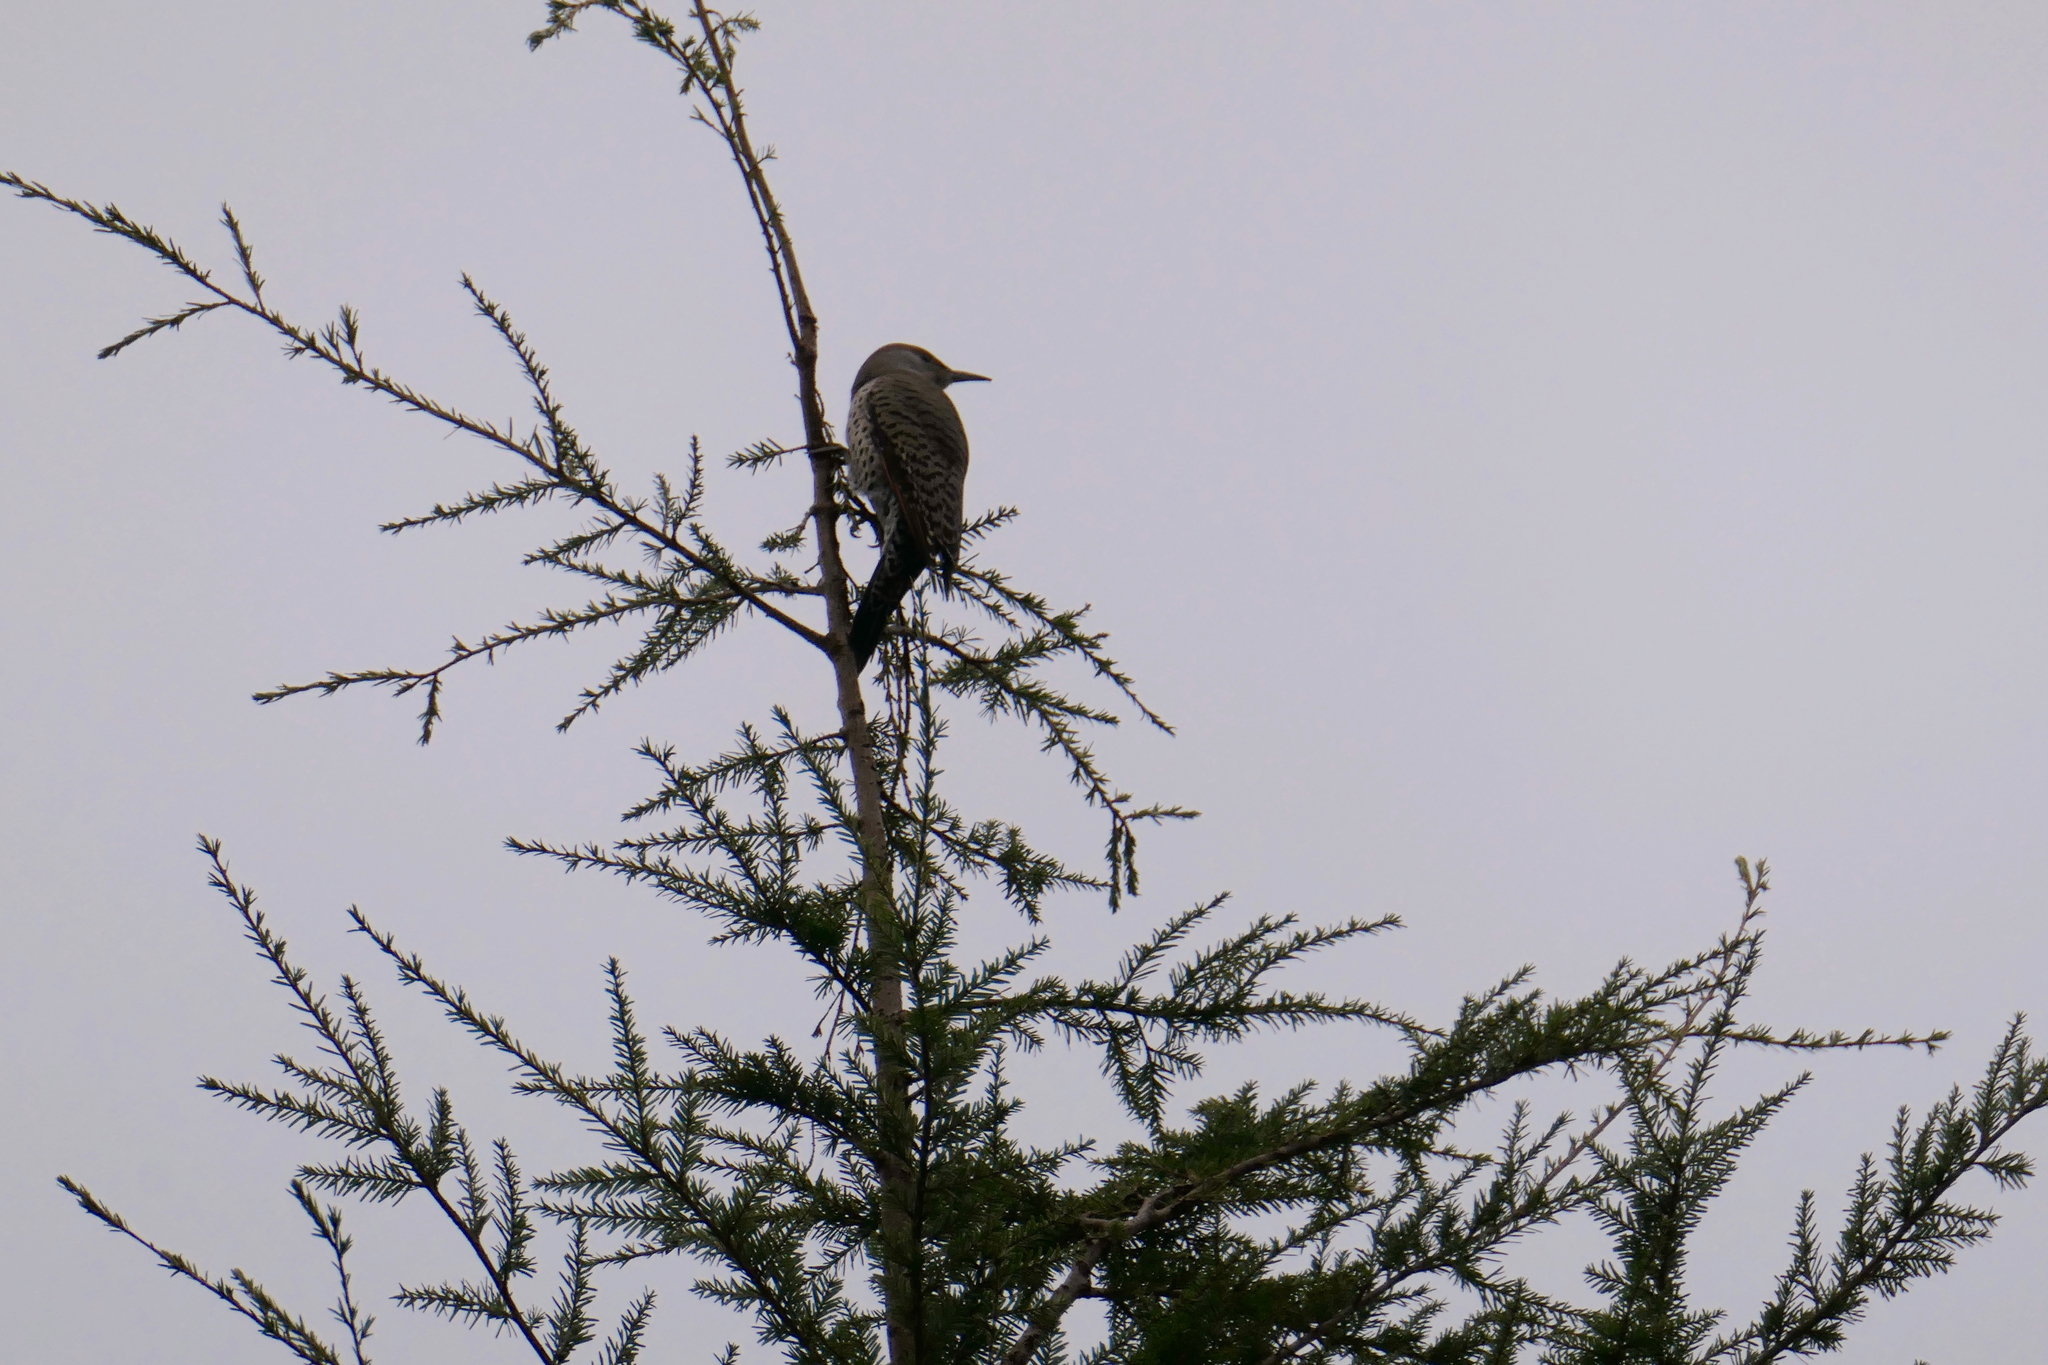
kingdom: Animalia
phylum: Chordata
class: Aves
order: Piciformes
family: Picidae
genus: Colaptes
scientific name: Colaptes auratus
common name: Northern flicker
